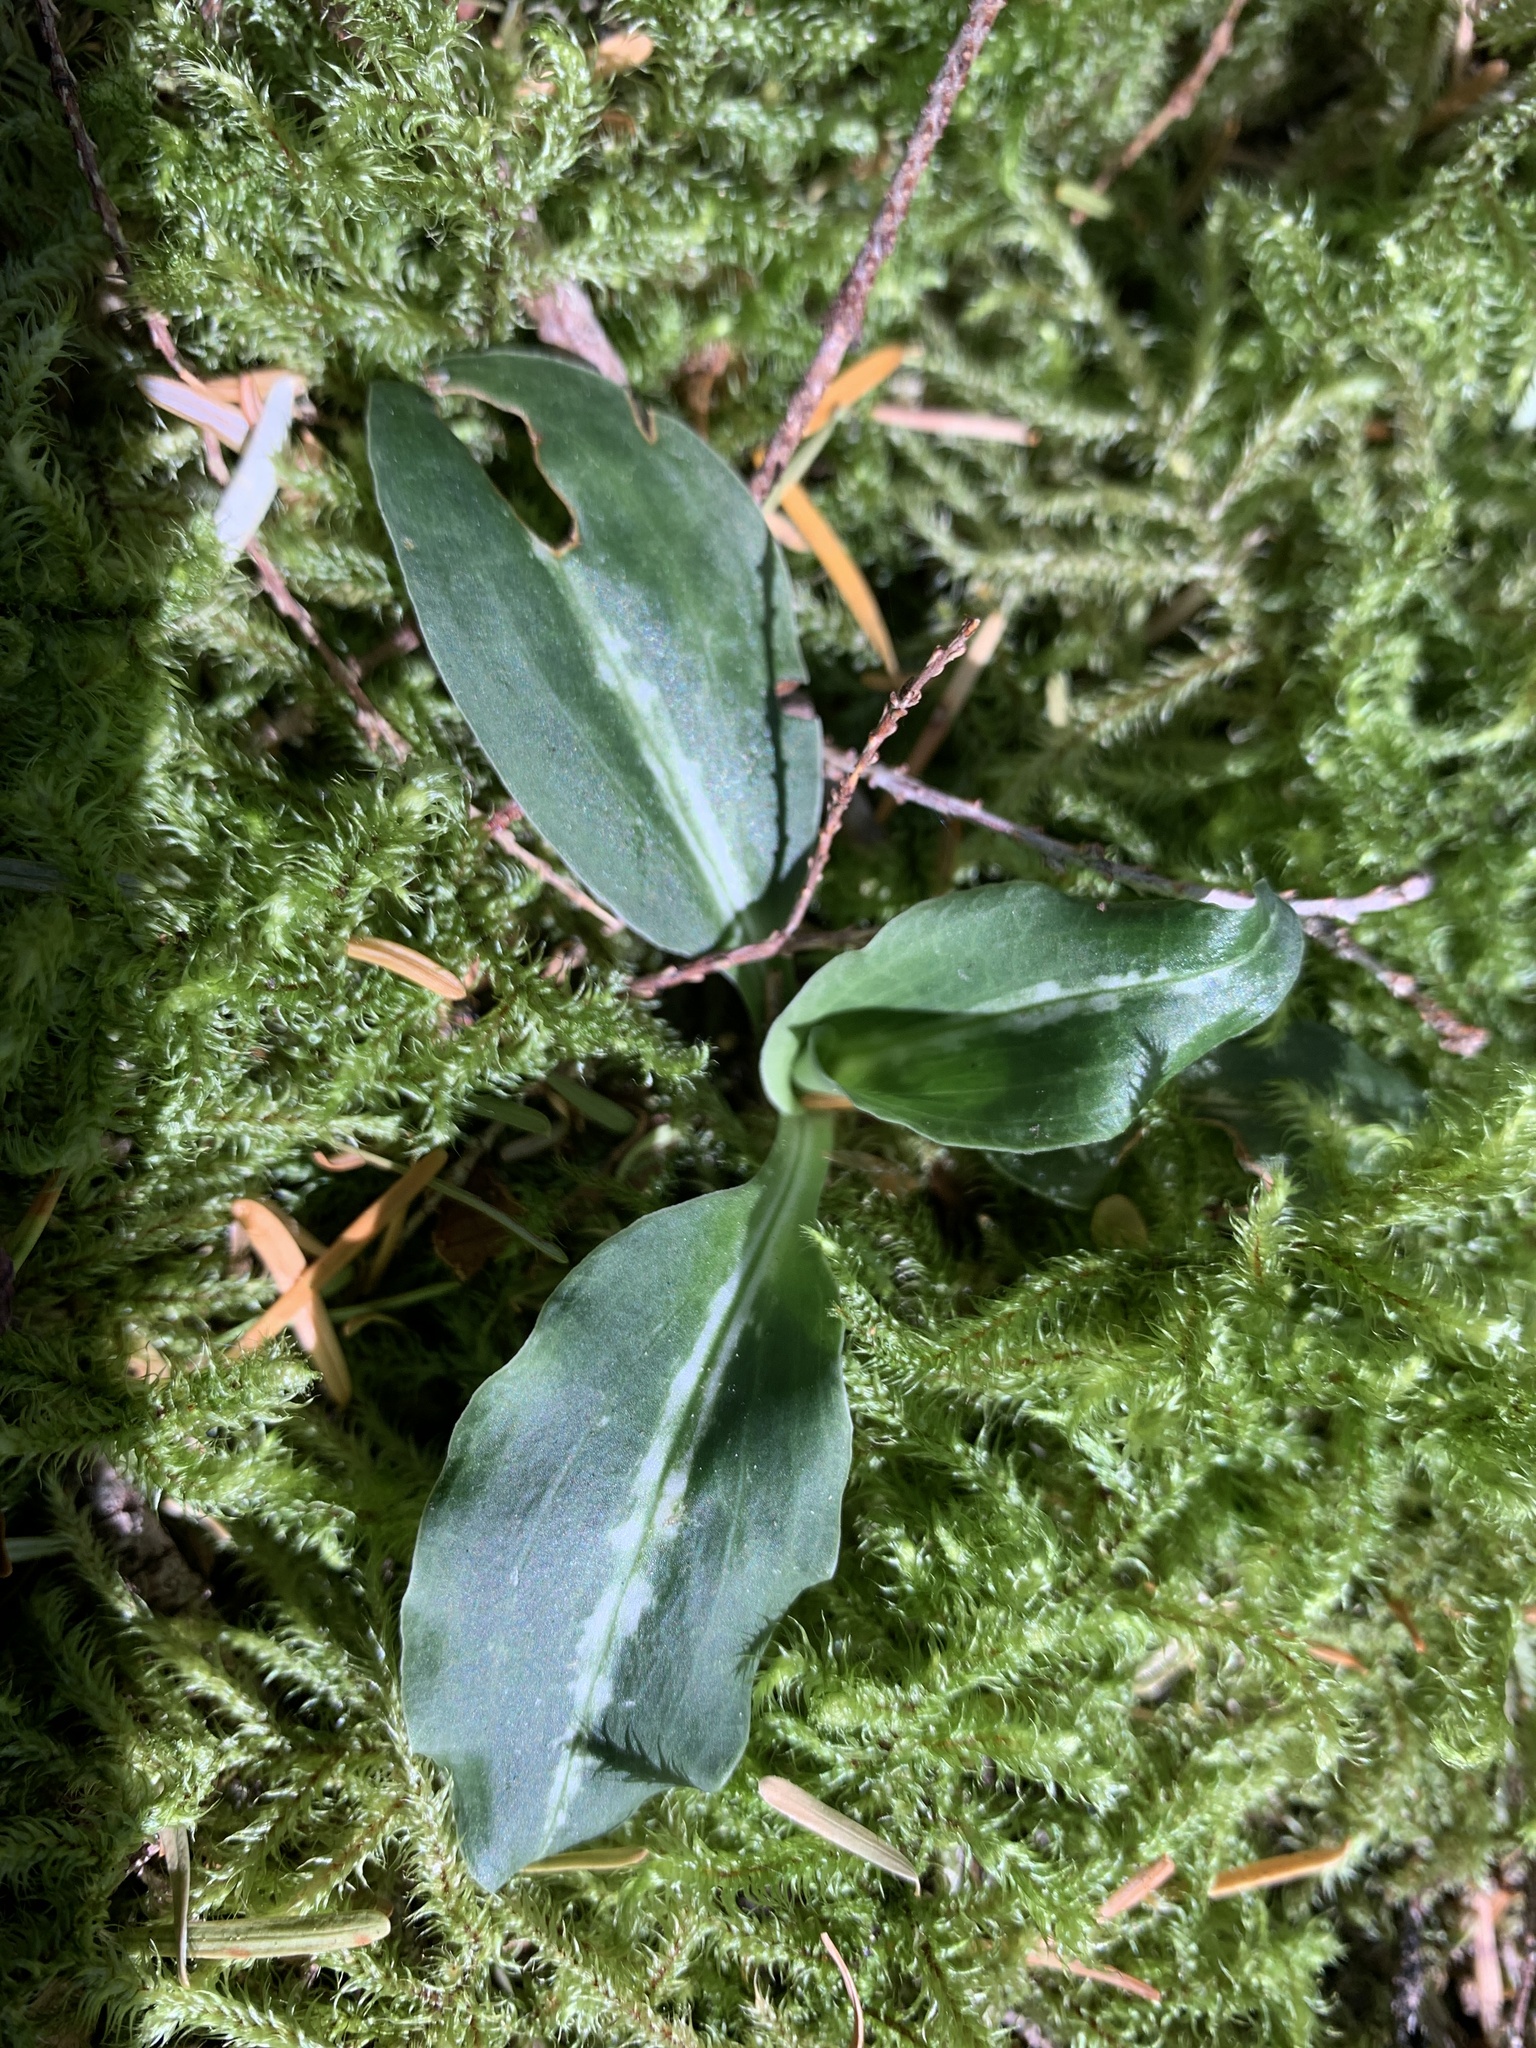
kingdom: Plantae
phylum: Tracheophyta
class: Liliopsida
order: Asparagales
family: Orchidaceae
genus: Goodyera
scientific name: Goodyera oblongifolia
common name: Giant rattlesnake-plantain
